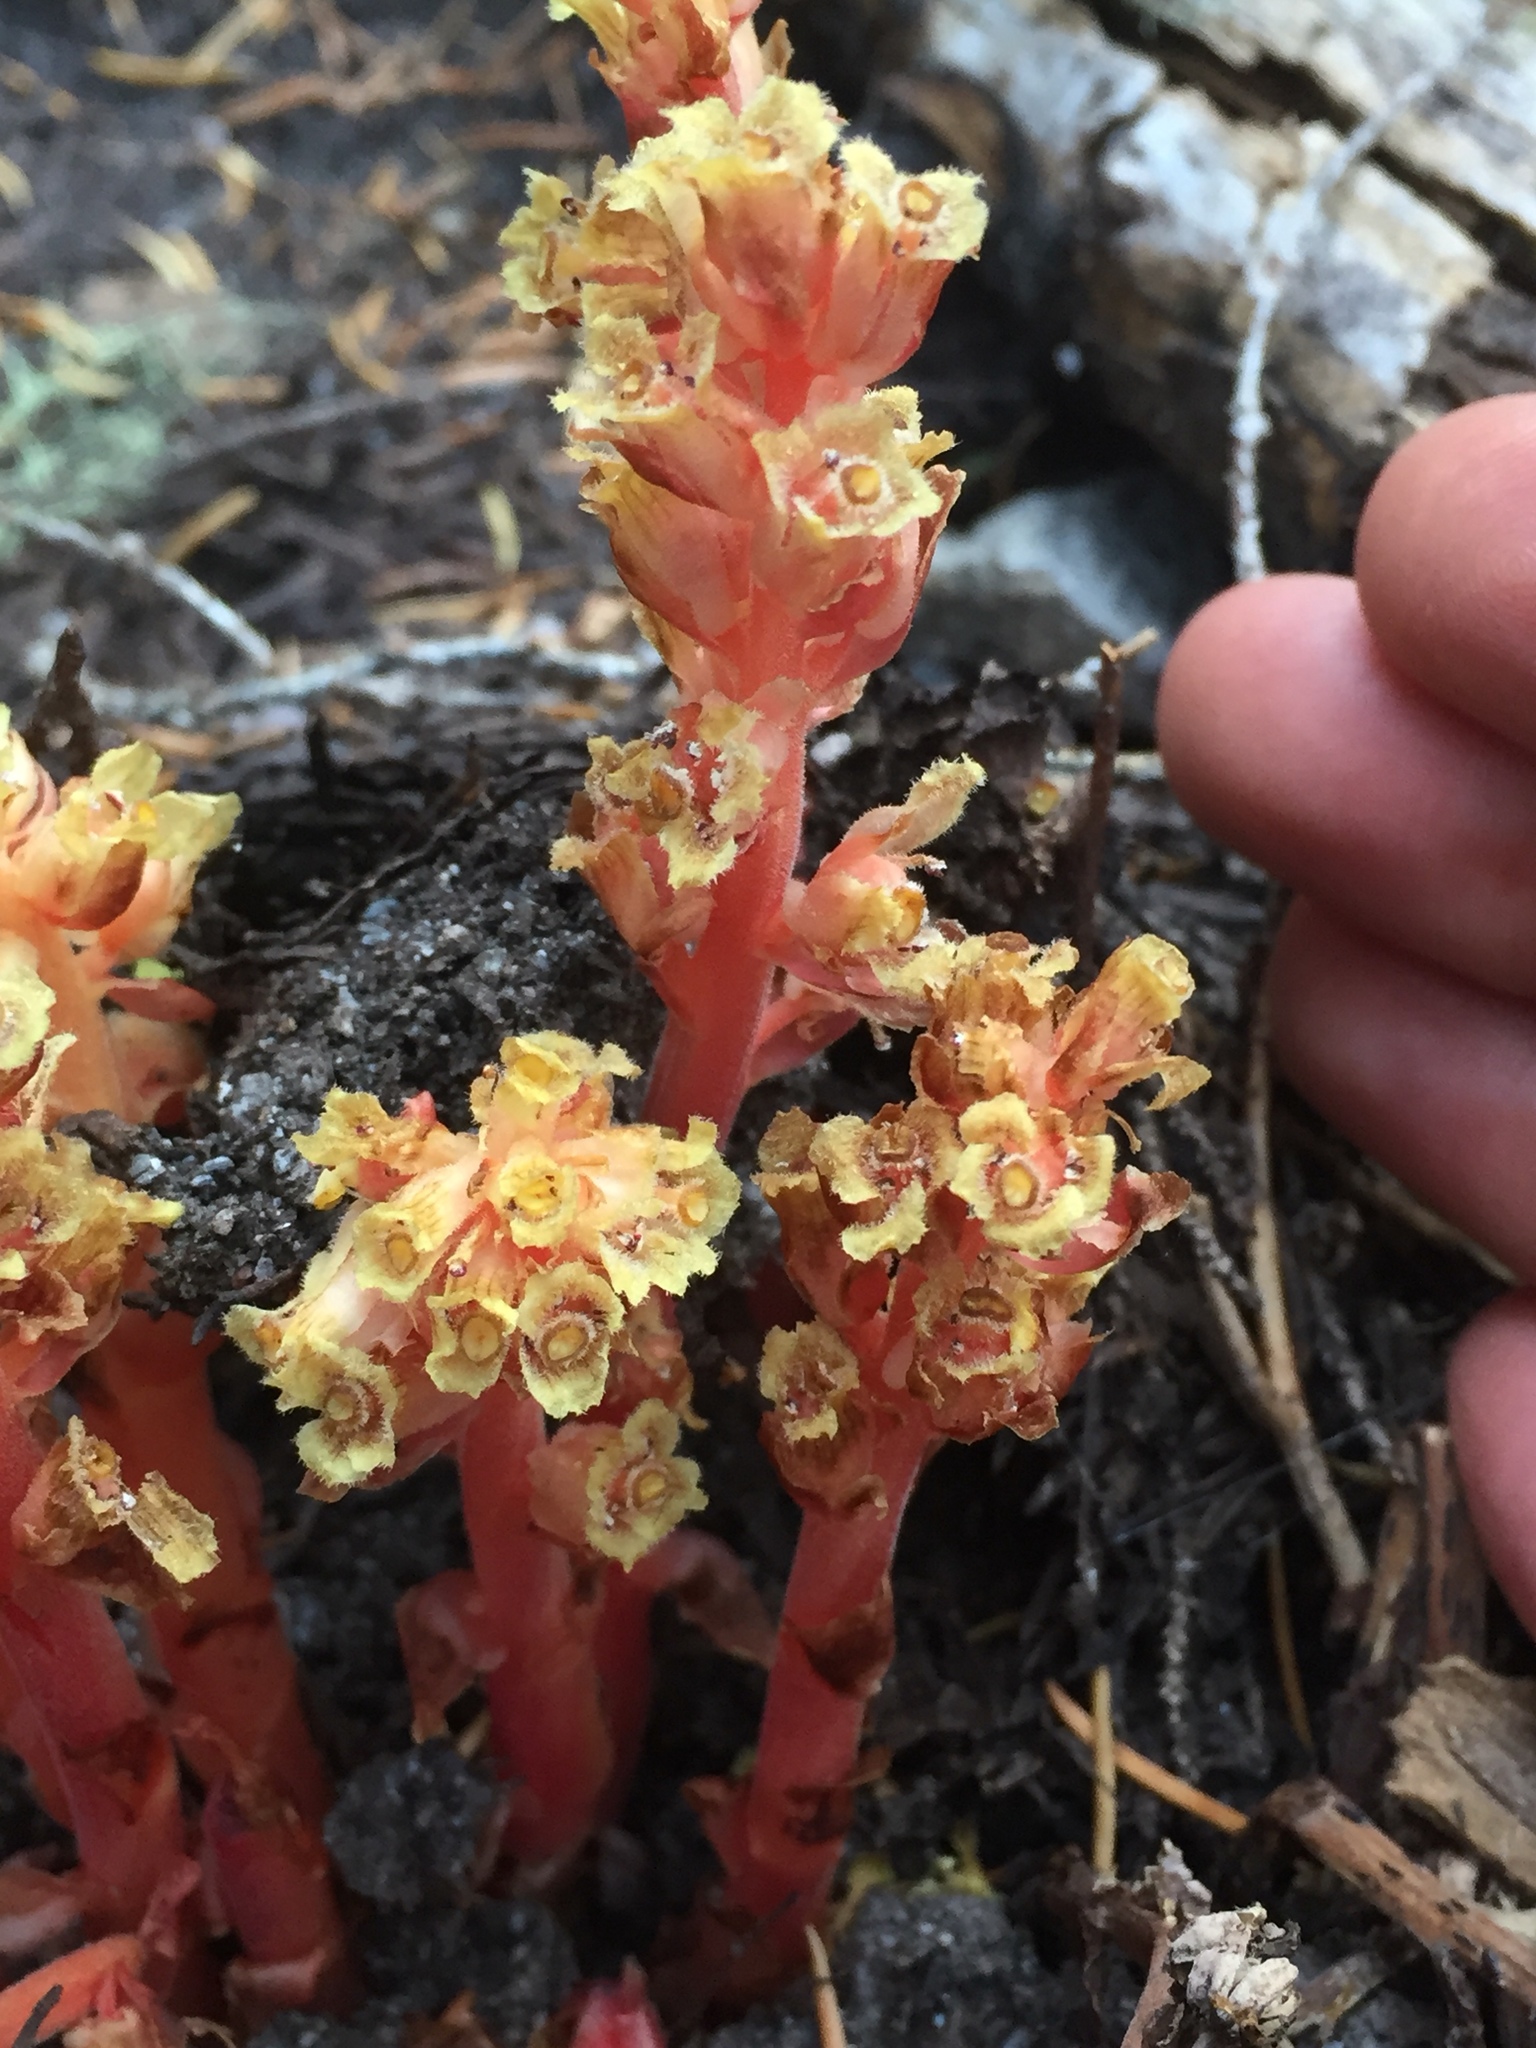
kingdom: Plantae
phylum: Tracheophyta
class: Magnoliopsida
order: Ericales
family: Ericaceae
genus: Hypopitys
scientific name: Hypopitys monotropa
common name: Yellow bird's-nest
